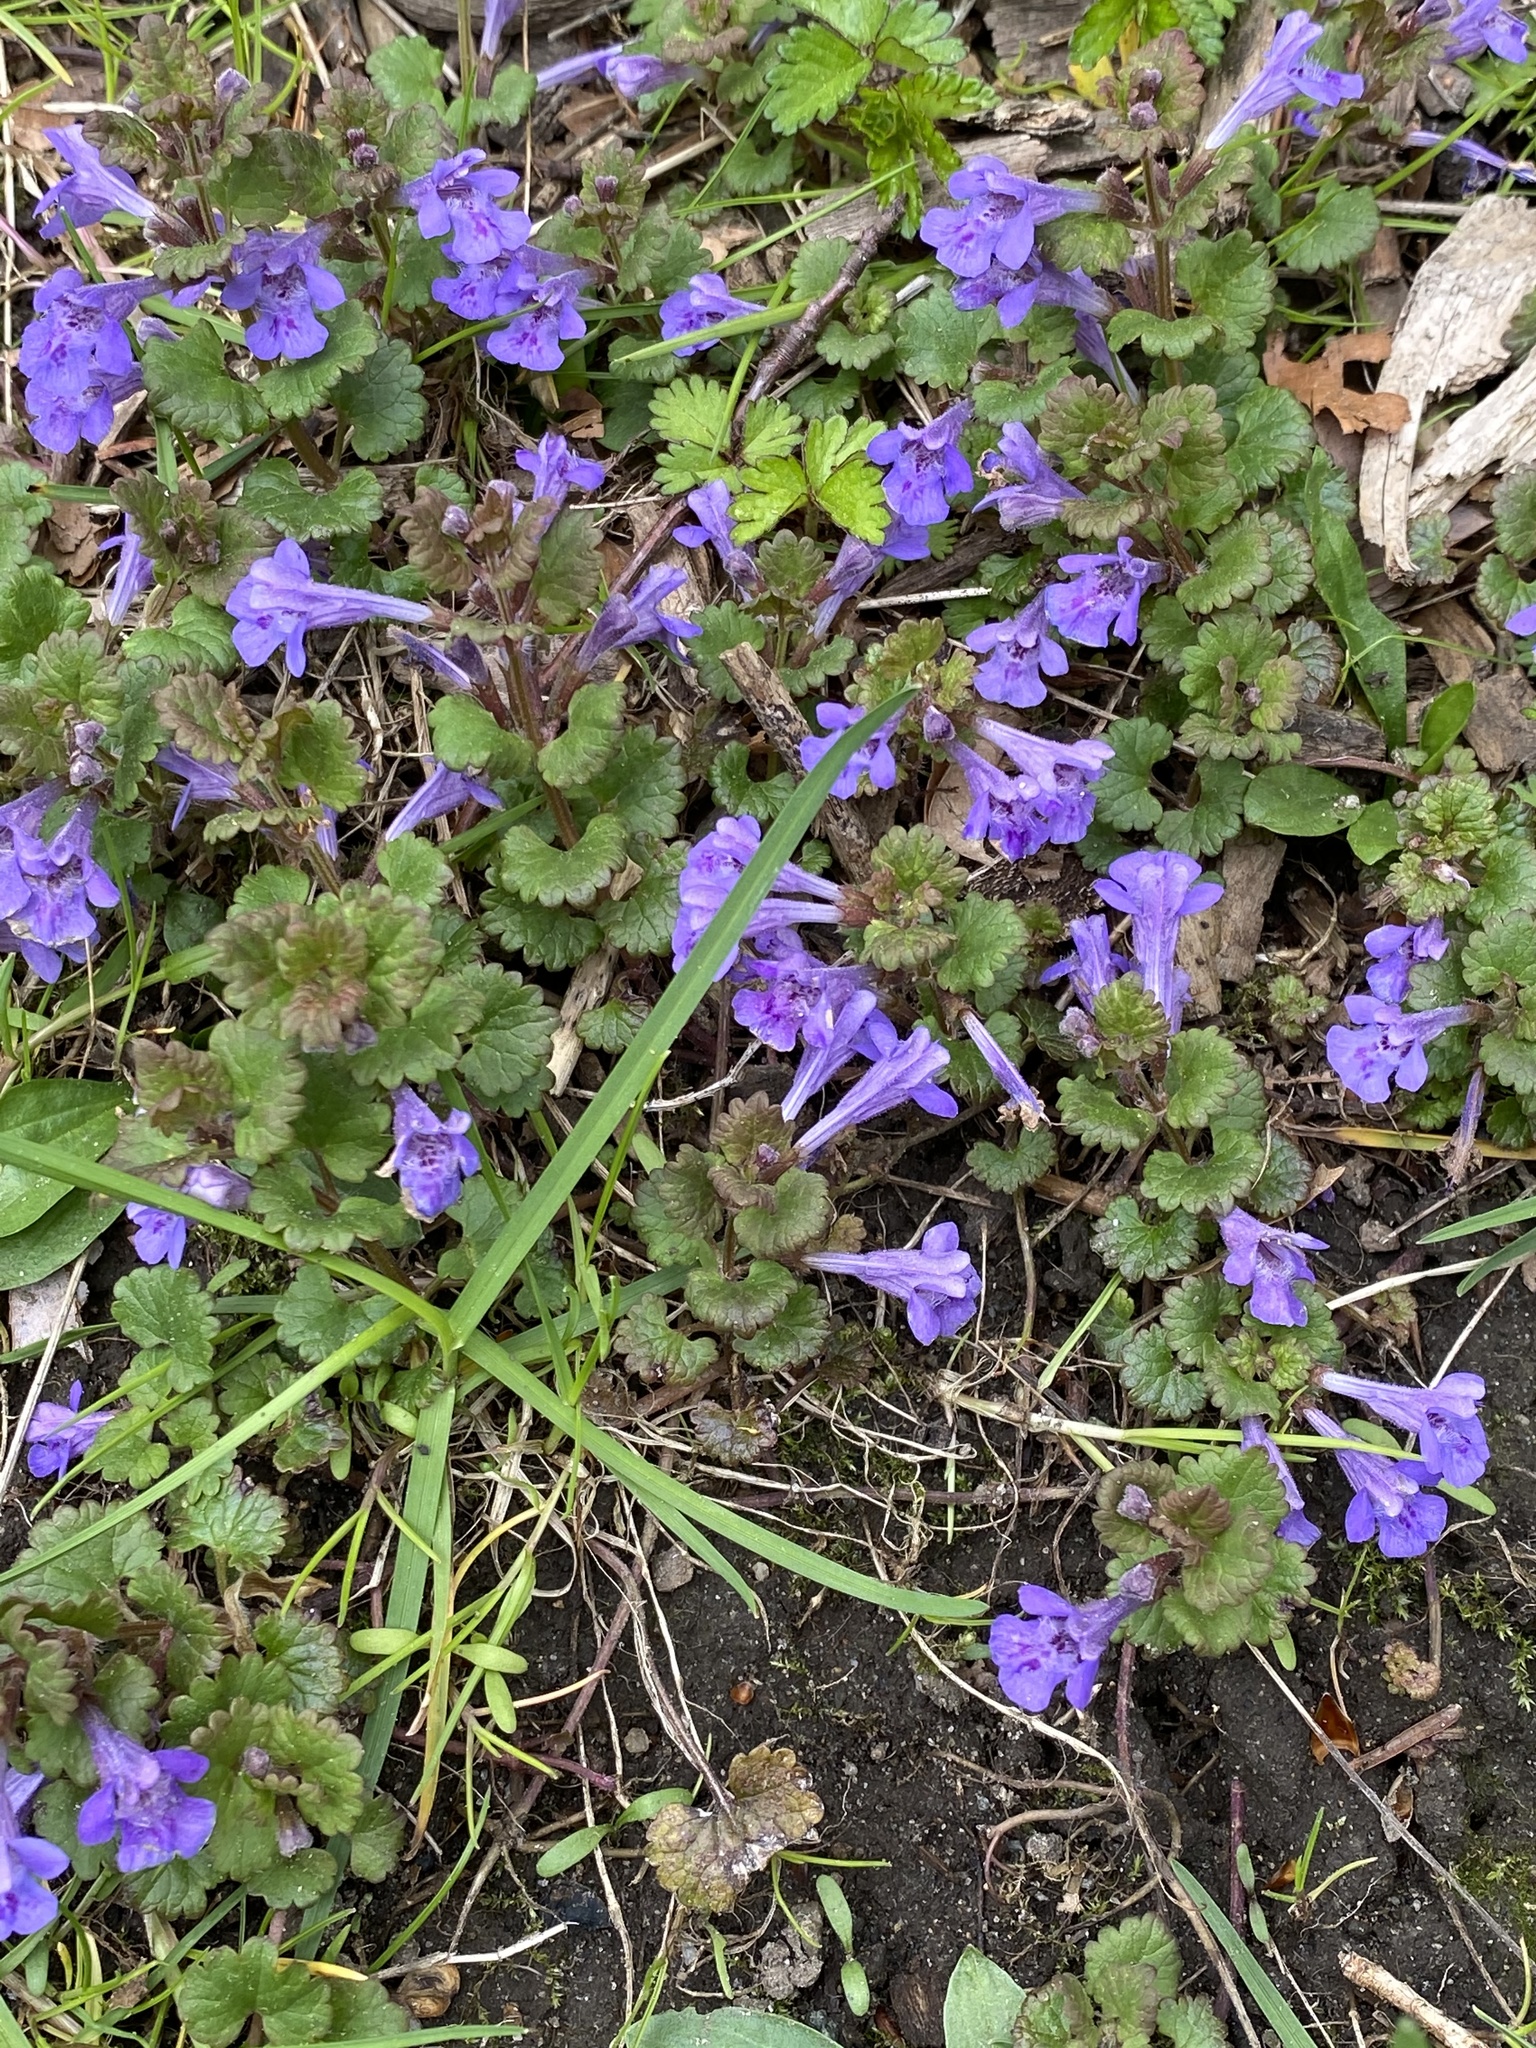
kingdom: Plantae
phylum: Tracheophyta
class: Magnoliopsida
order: Lamiales
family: Lamiaceae
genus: Glechoma
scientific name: Glechoma hederacea
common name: Ground ivy
